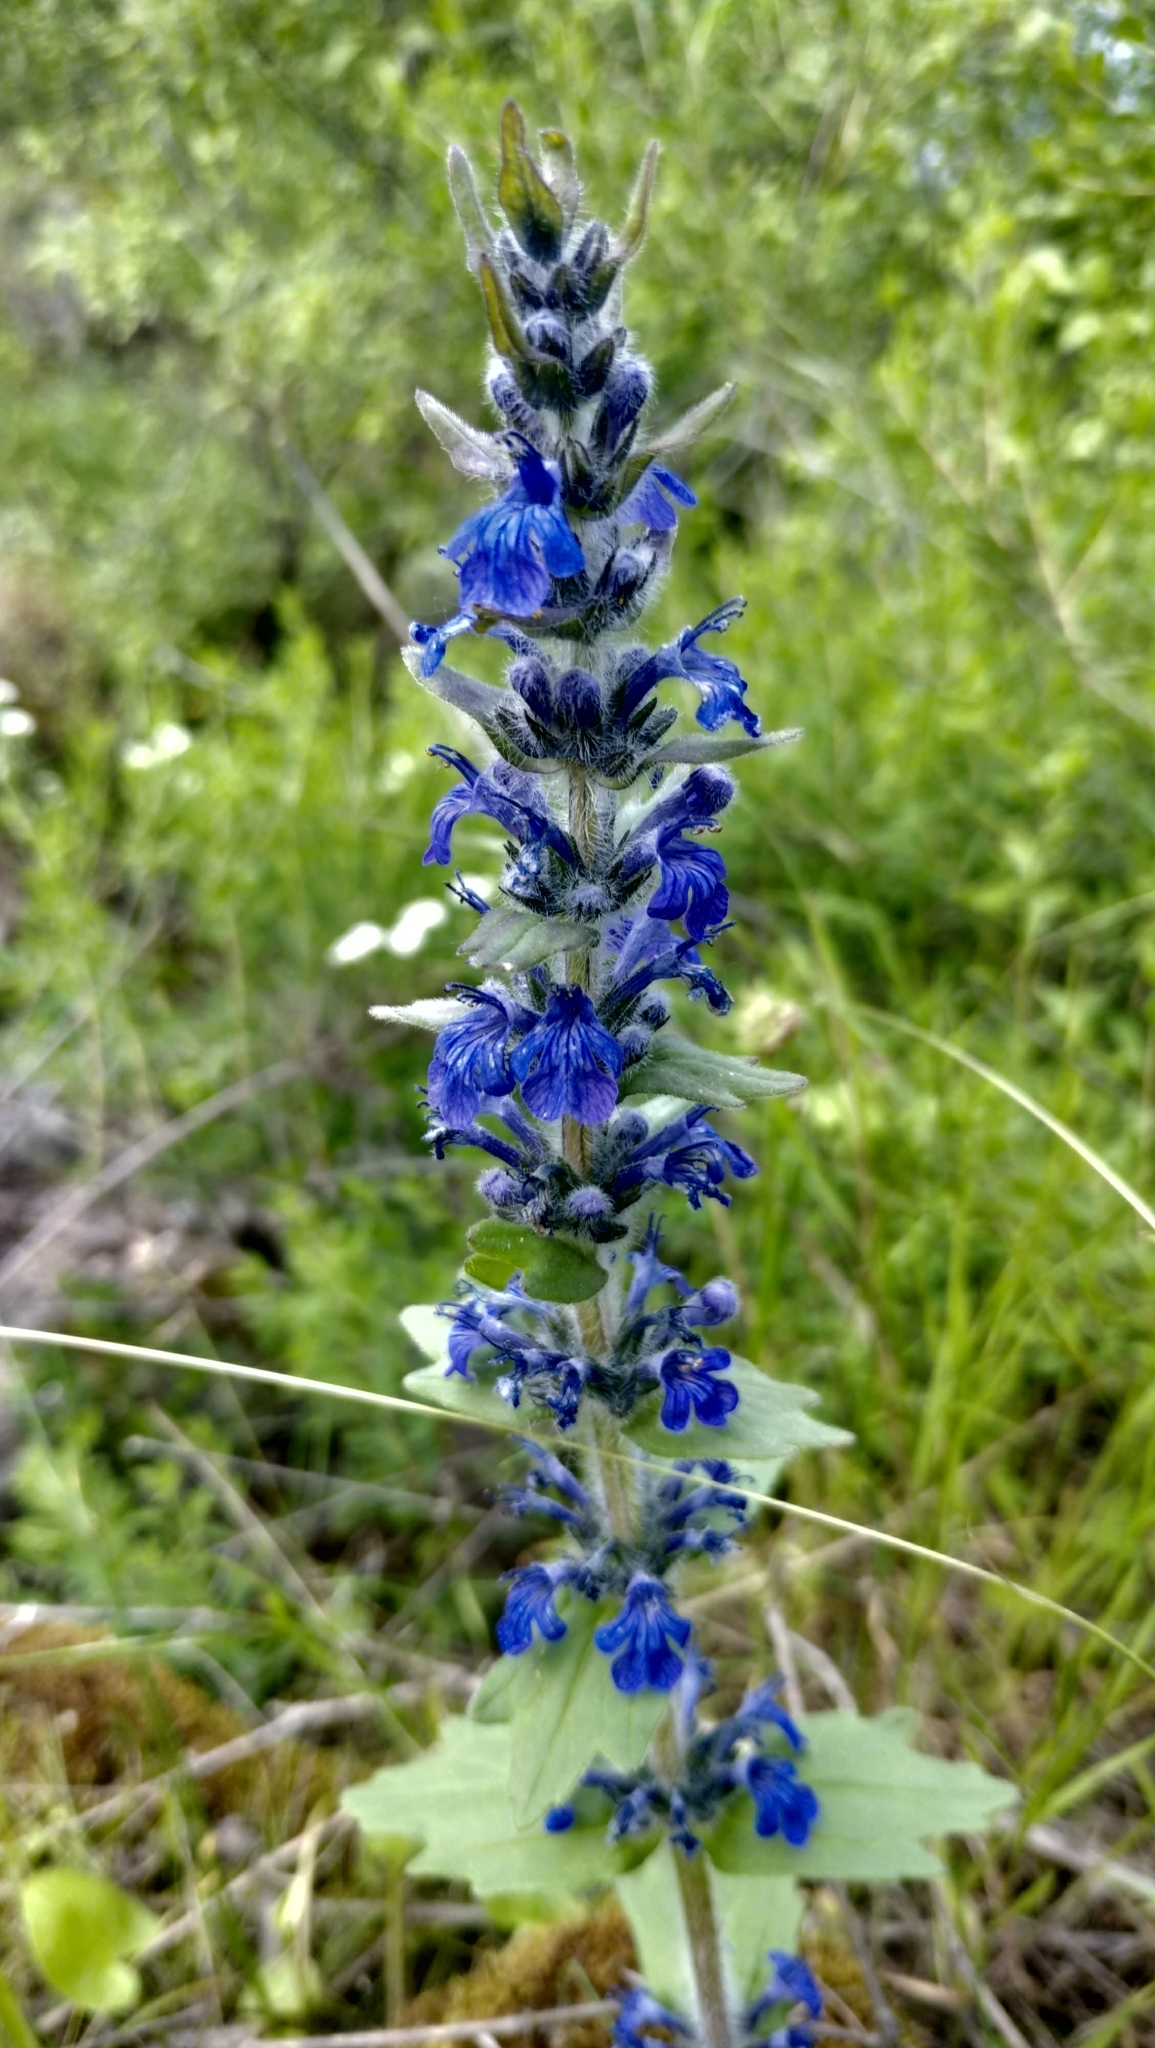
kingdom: Plantae
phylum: Tracheophyta
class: Magnoliopsida
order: Lamiales
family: Lamiaceae
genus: Ajuga
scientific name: Ajuga genevensis
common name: Blue bugle
